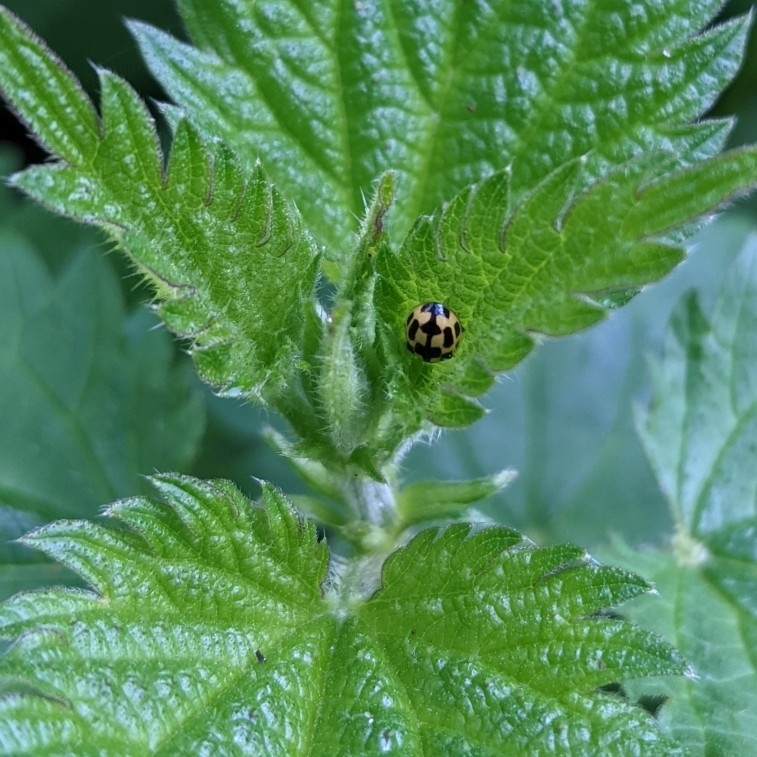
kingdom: Animalia
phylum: Arthropoda
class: Insecta
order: Coleoptera
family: Coccinellidae
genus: Propylaea
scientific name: Propylaea quatuordecimpunctata
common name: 14-spotted ladybird beetle
